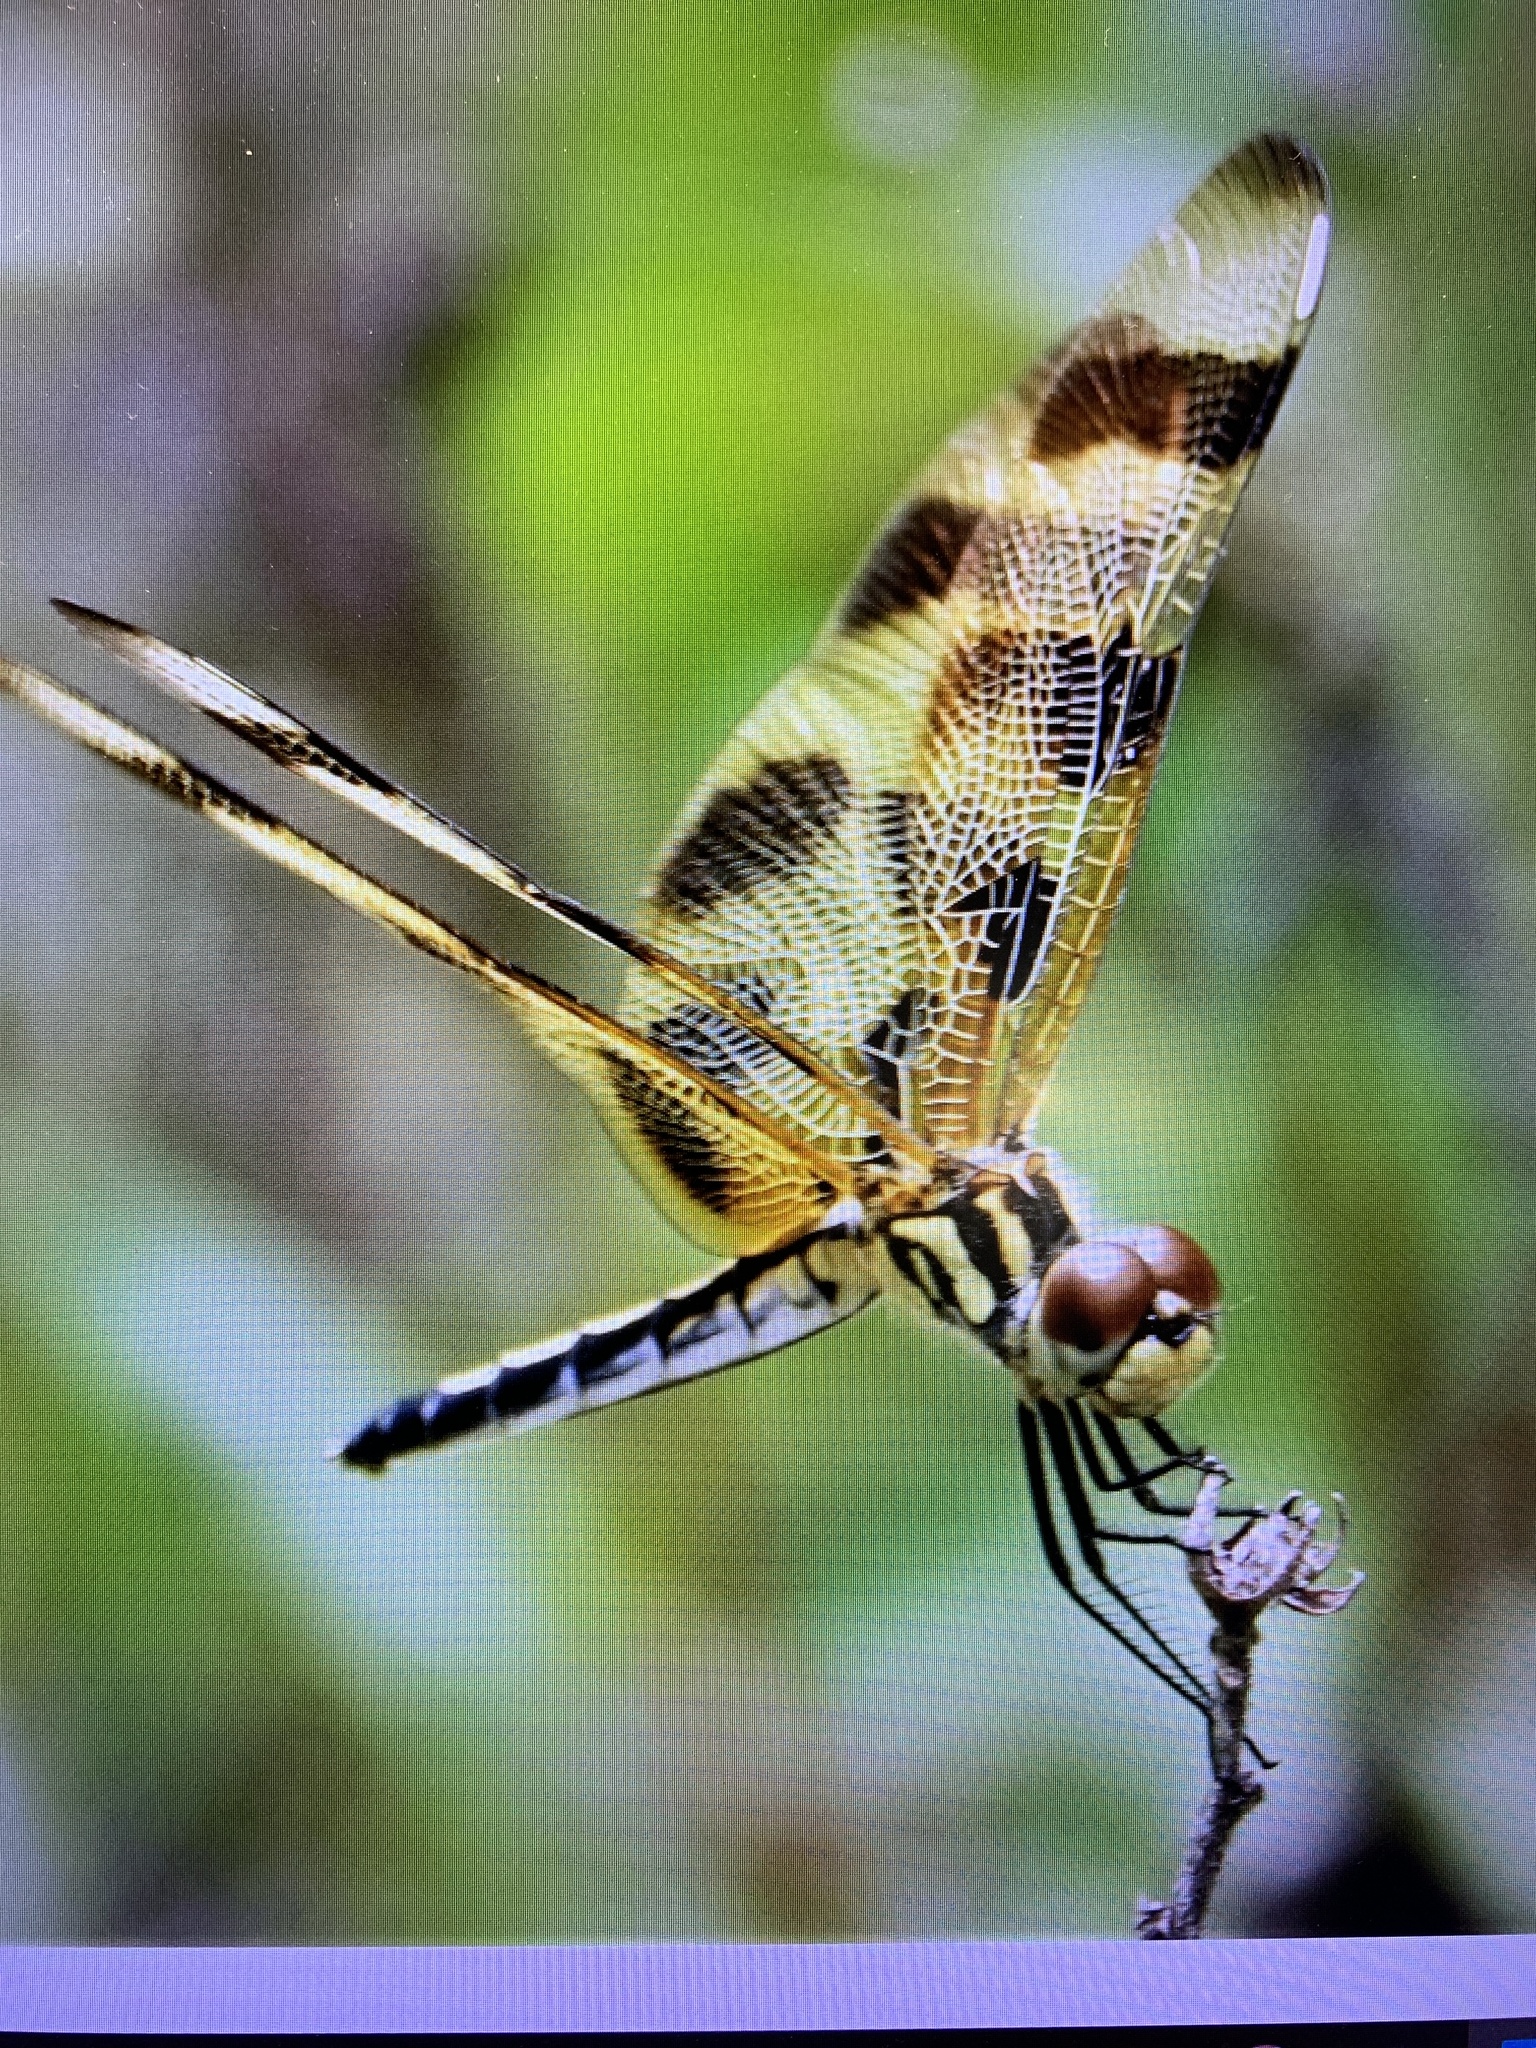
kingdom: Animalia
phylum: Arthropoda
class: Insecta
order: Odonata
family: Libellulidae
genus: Celithemis
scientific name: Celithemis eponina
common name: Halloween pennant
